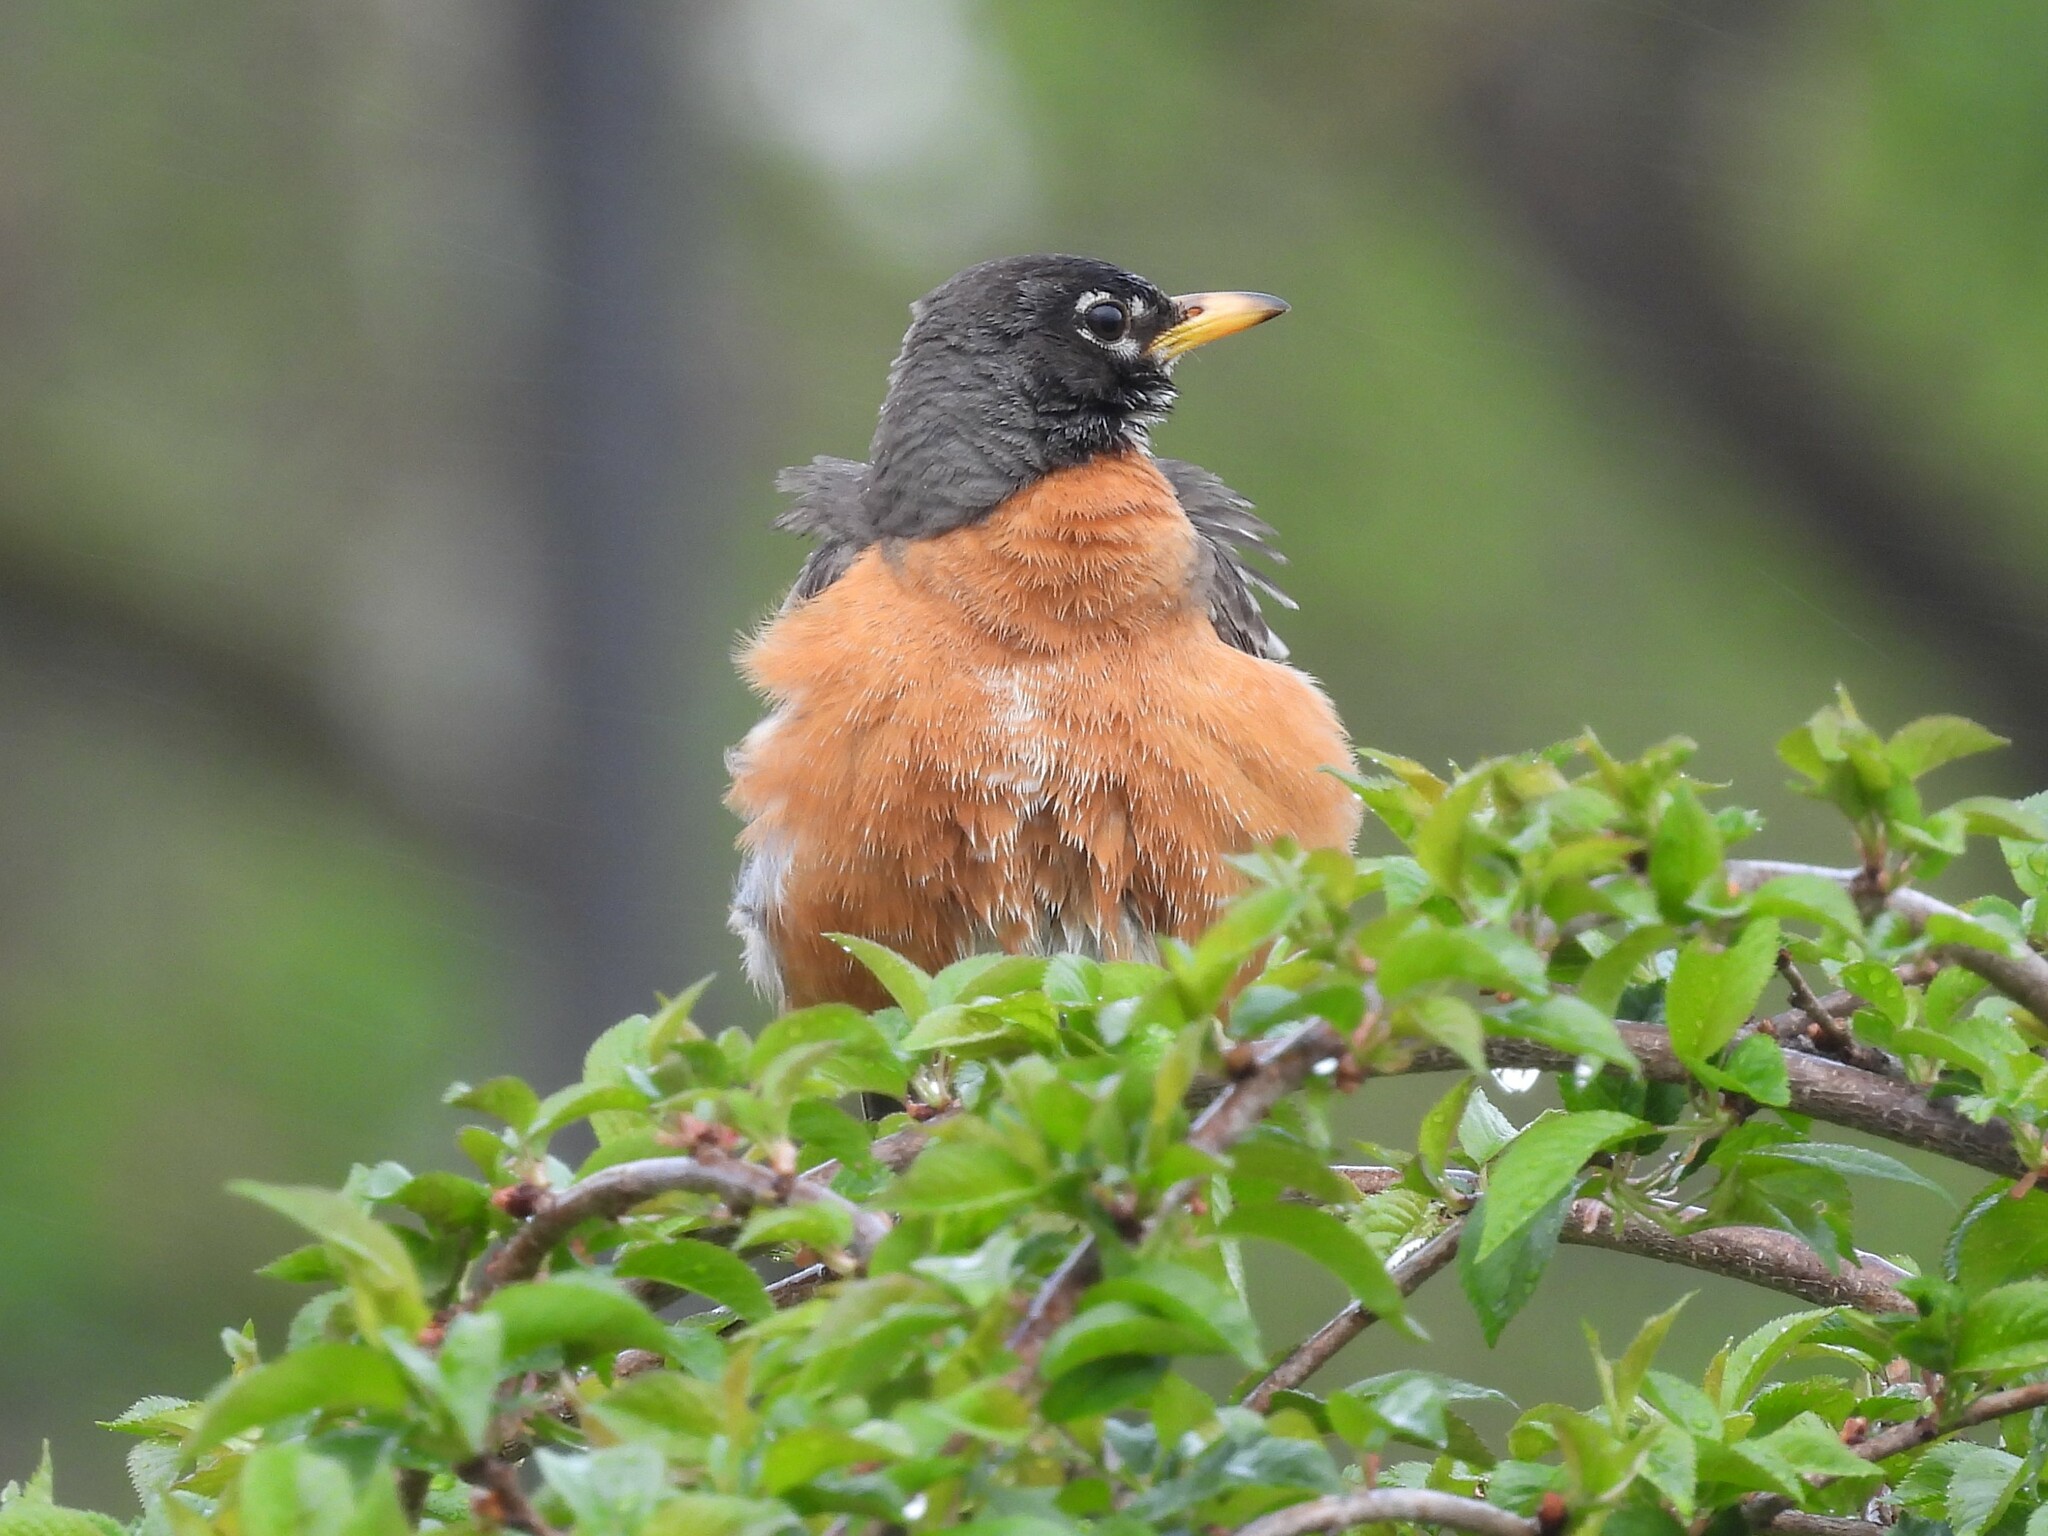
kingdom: Animalia
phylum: Chordata
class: Aves
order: Passeriformes
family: Turdidae
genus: Turdus
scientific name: Turdus migratorius
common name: American robin
